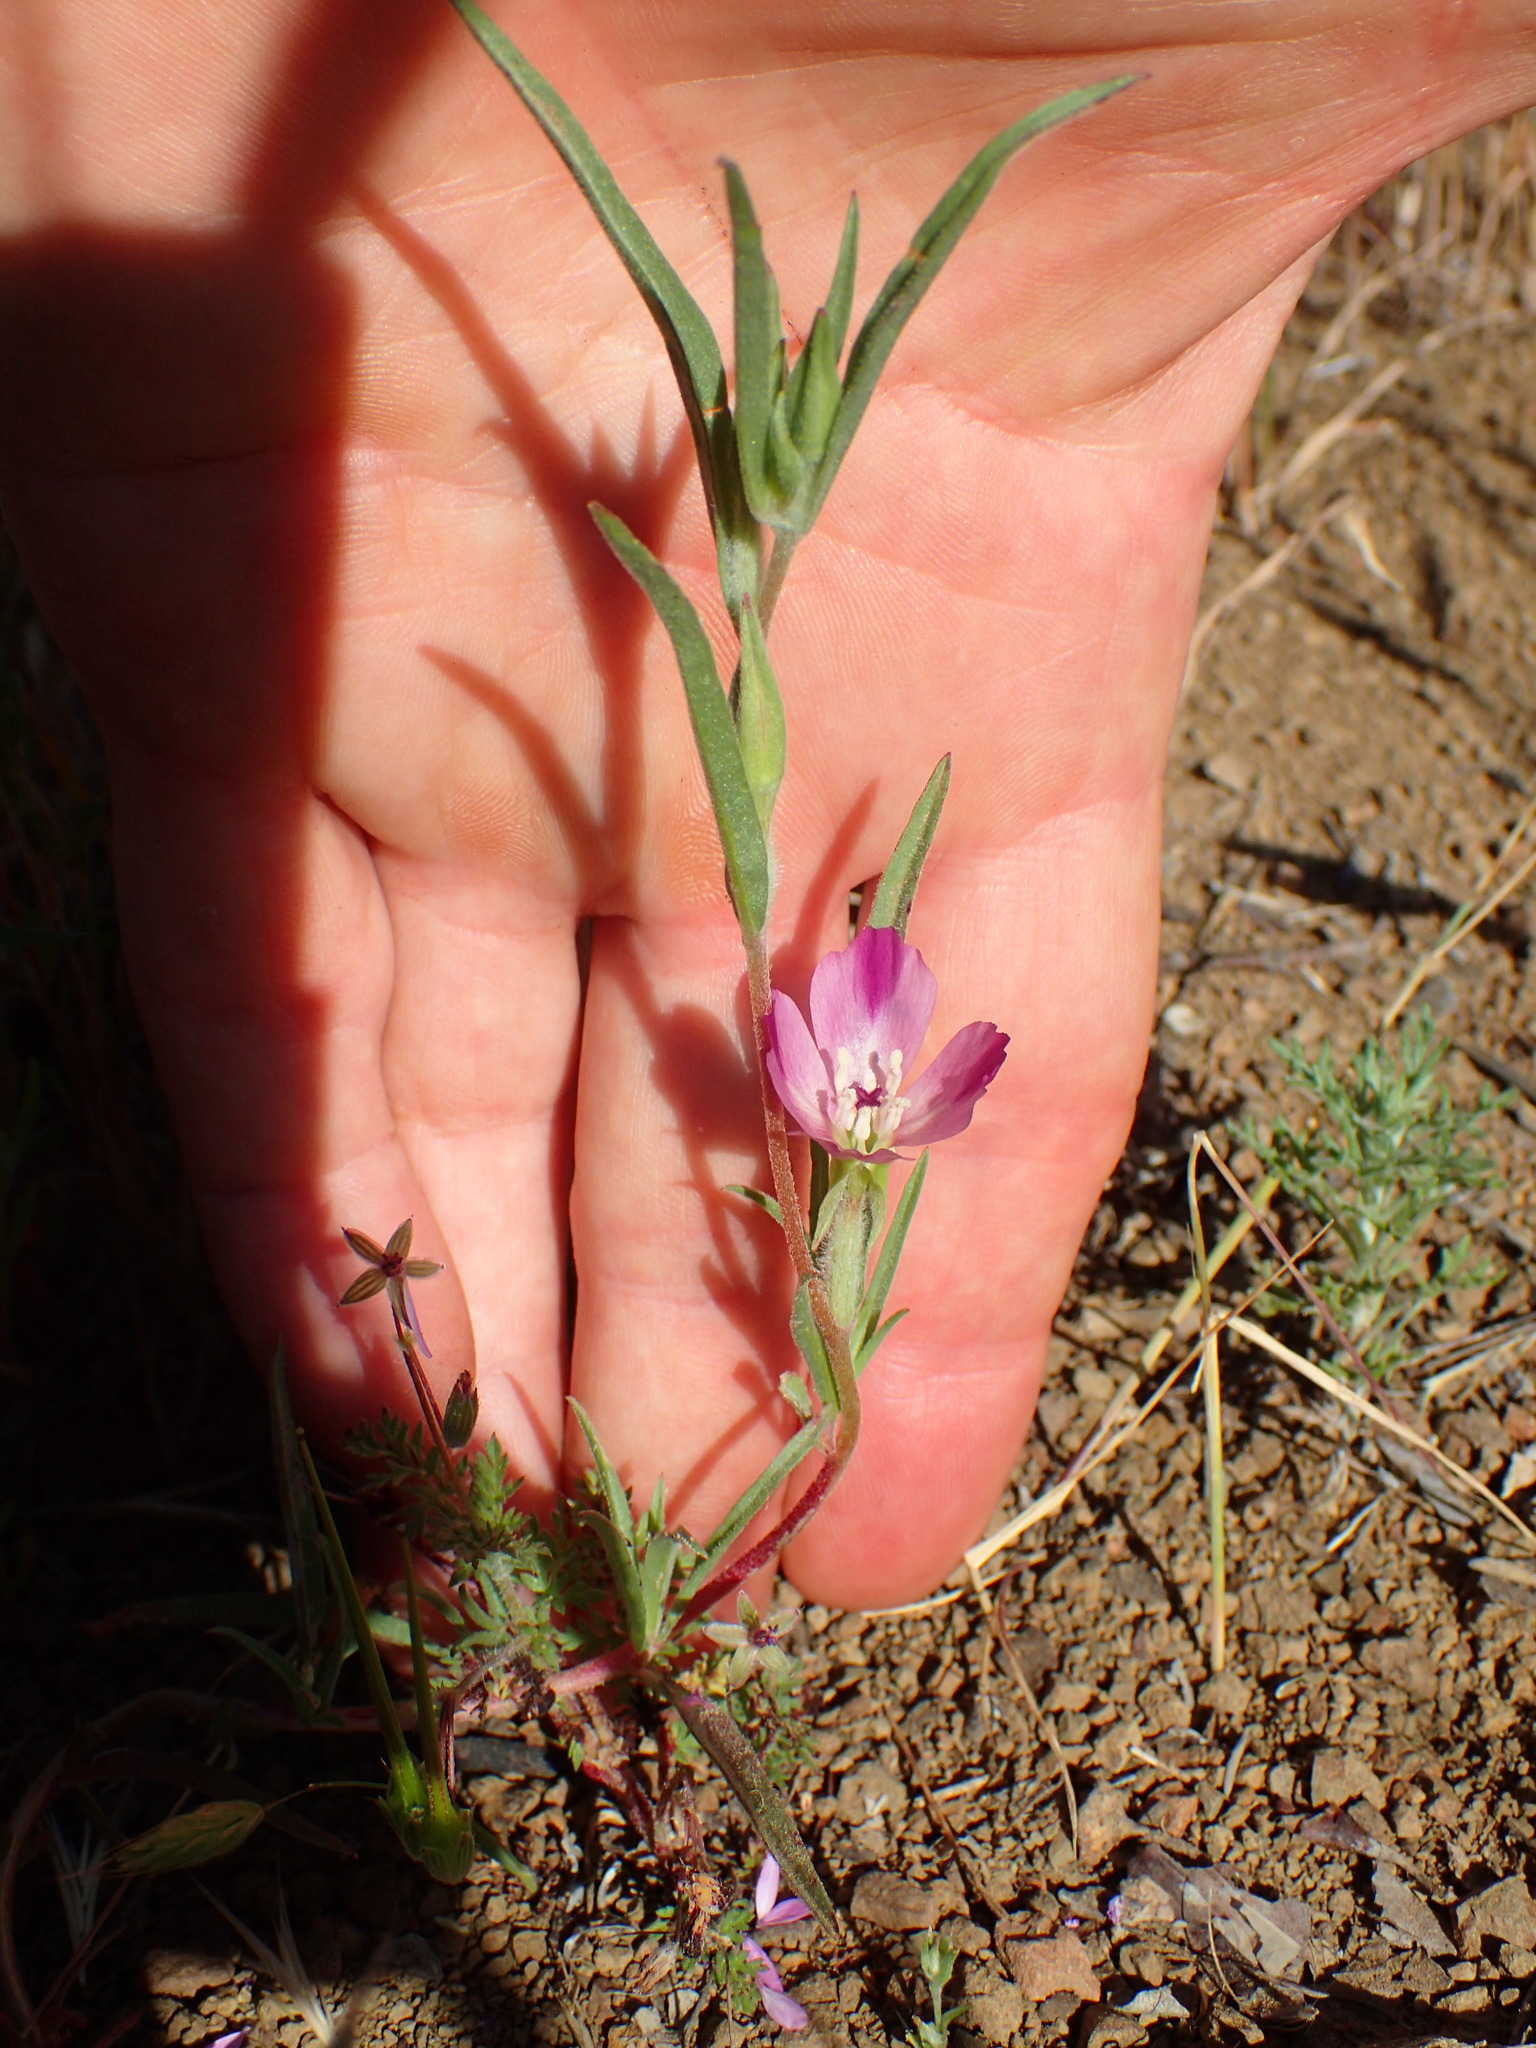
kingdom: Plantae
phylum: Tracheophyta
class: Magnoliopsida
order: Myrtales
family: Onagraceae
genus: Clarkia
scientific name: Clarkia purpurea
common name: Purple clarkia
